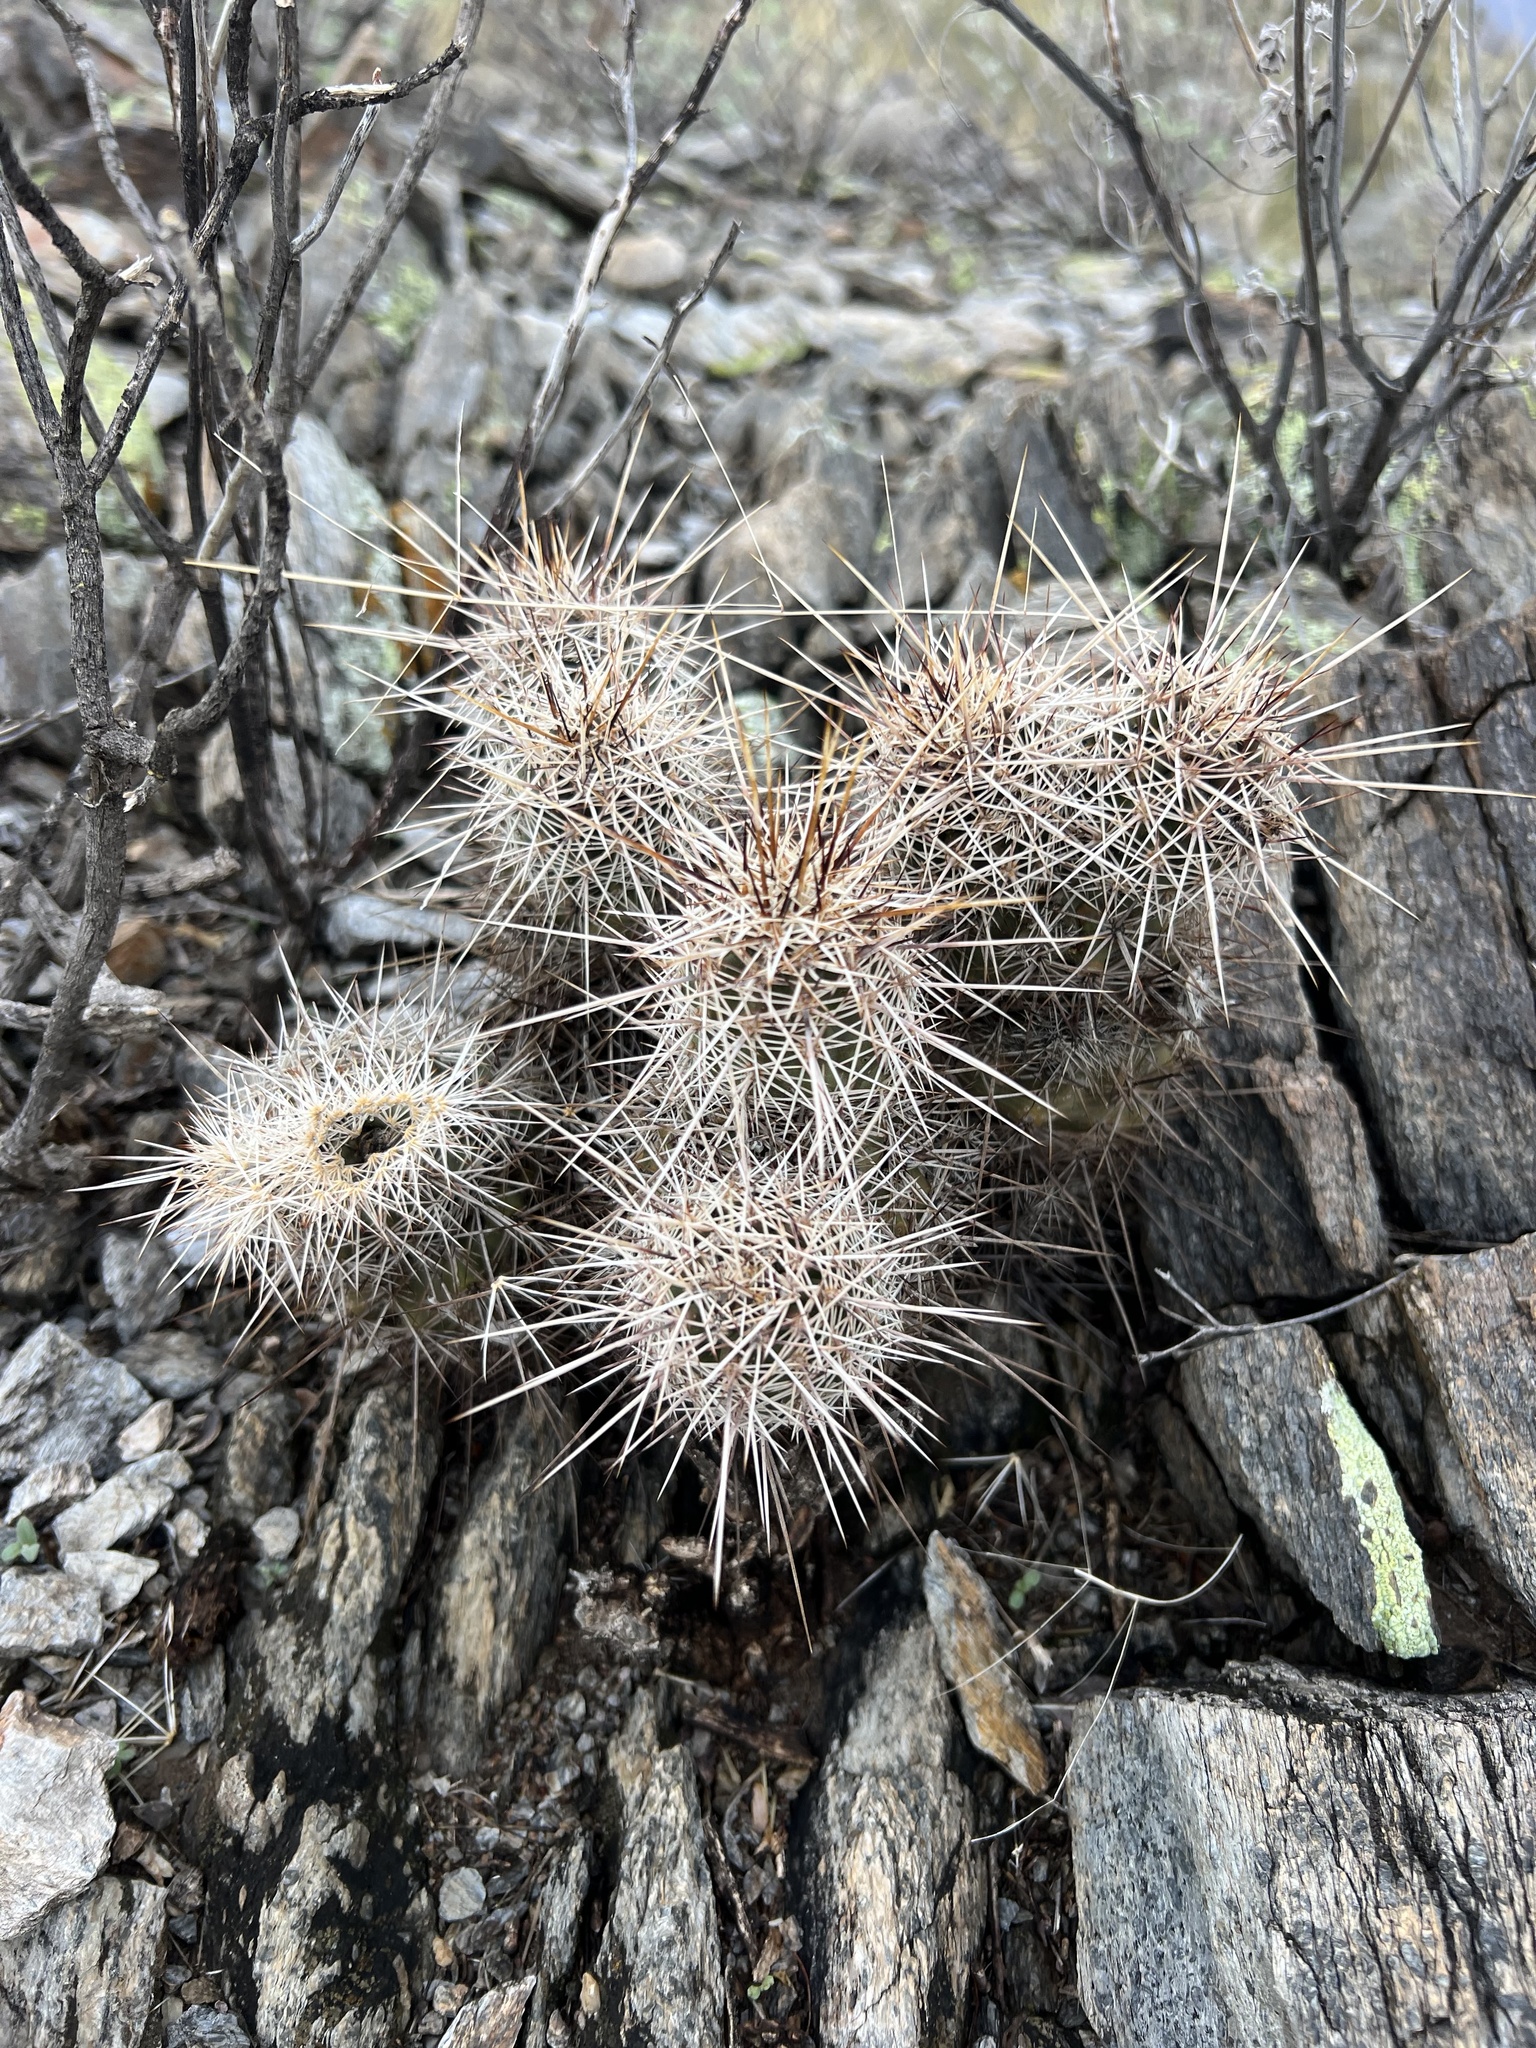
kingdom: Plantae
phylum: Tracheophyta
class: Magnoliopsida
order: Caryophyllales
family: Cactaceae
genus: Echinocereus
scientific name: Echinocereus fasciculatus
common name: Bundle hedgehog
